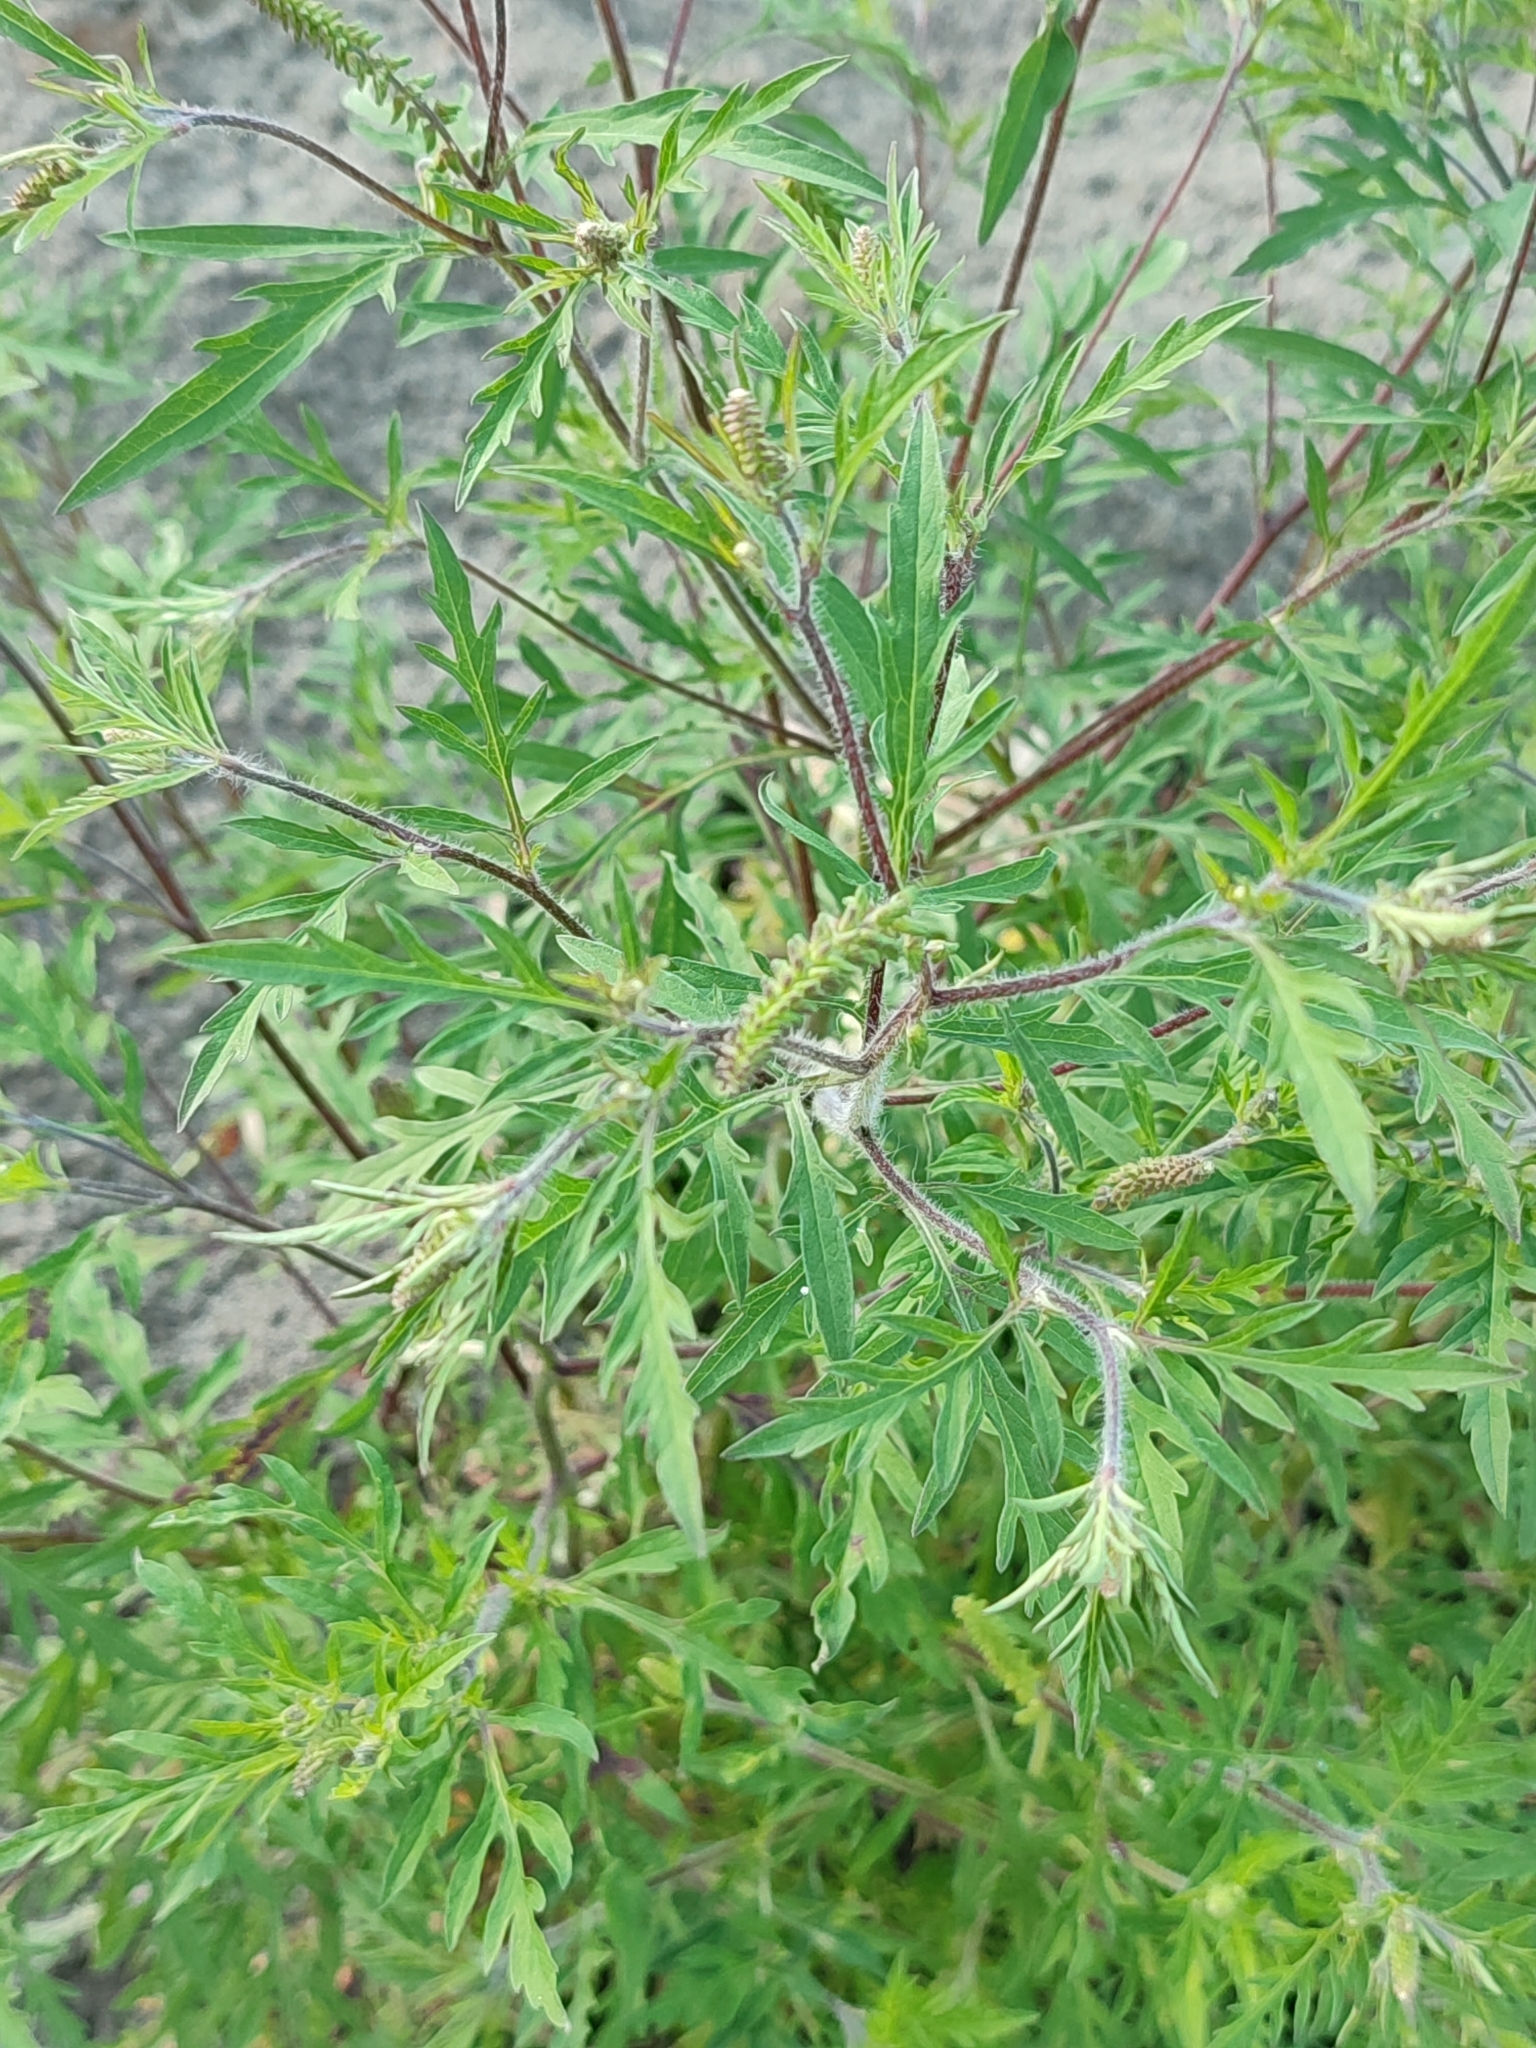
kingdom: Plantae
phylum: Tracheophyta
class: Magnoliopsida
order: Asterales
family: Asteraceae
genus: Ambrosia
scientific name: Ambrosia artemisiifolia
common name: Annual ragweed
